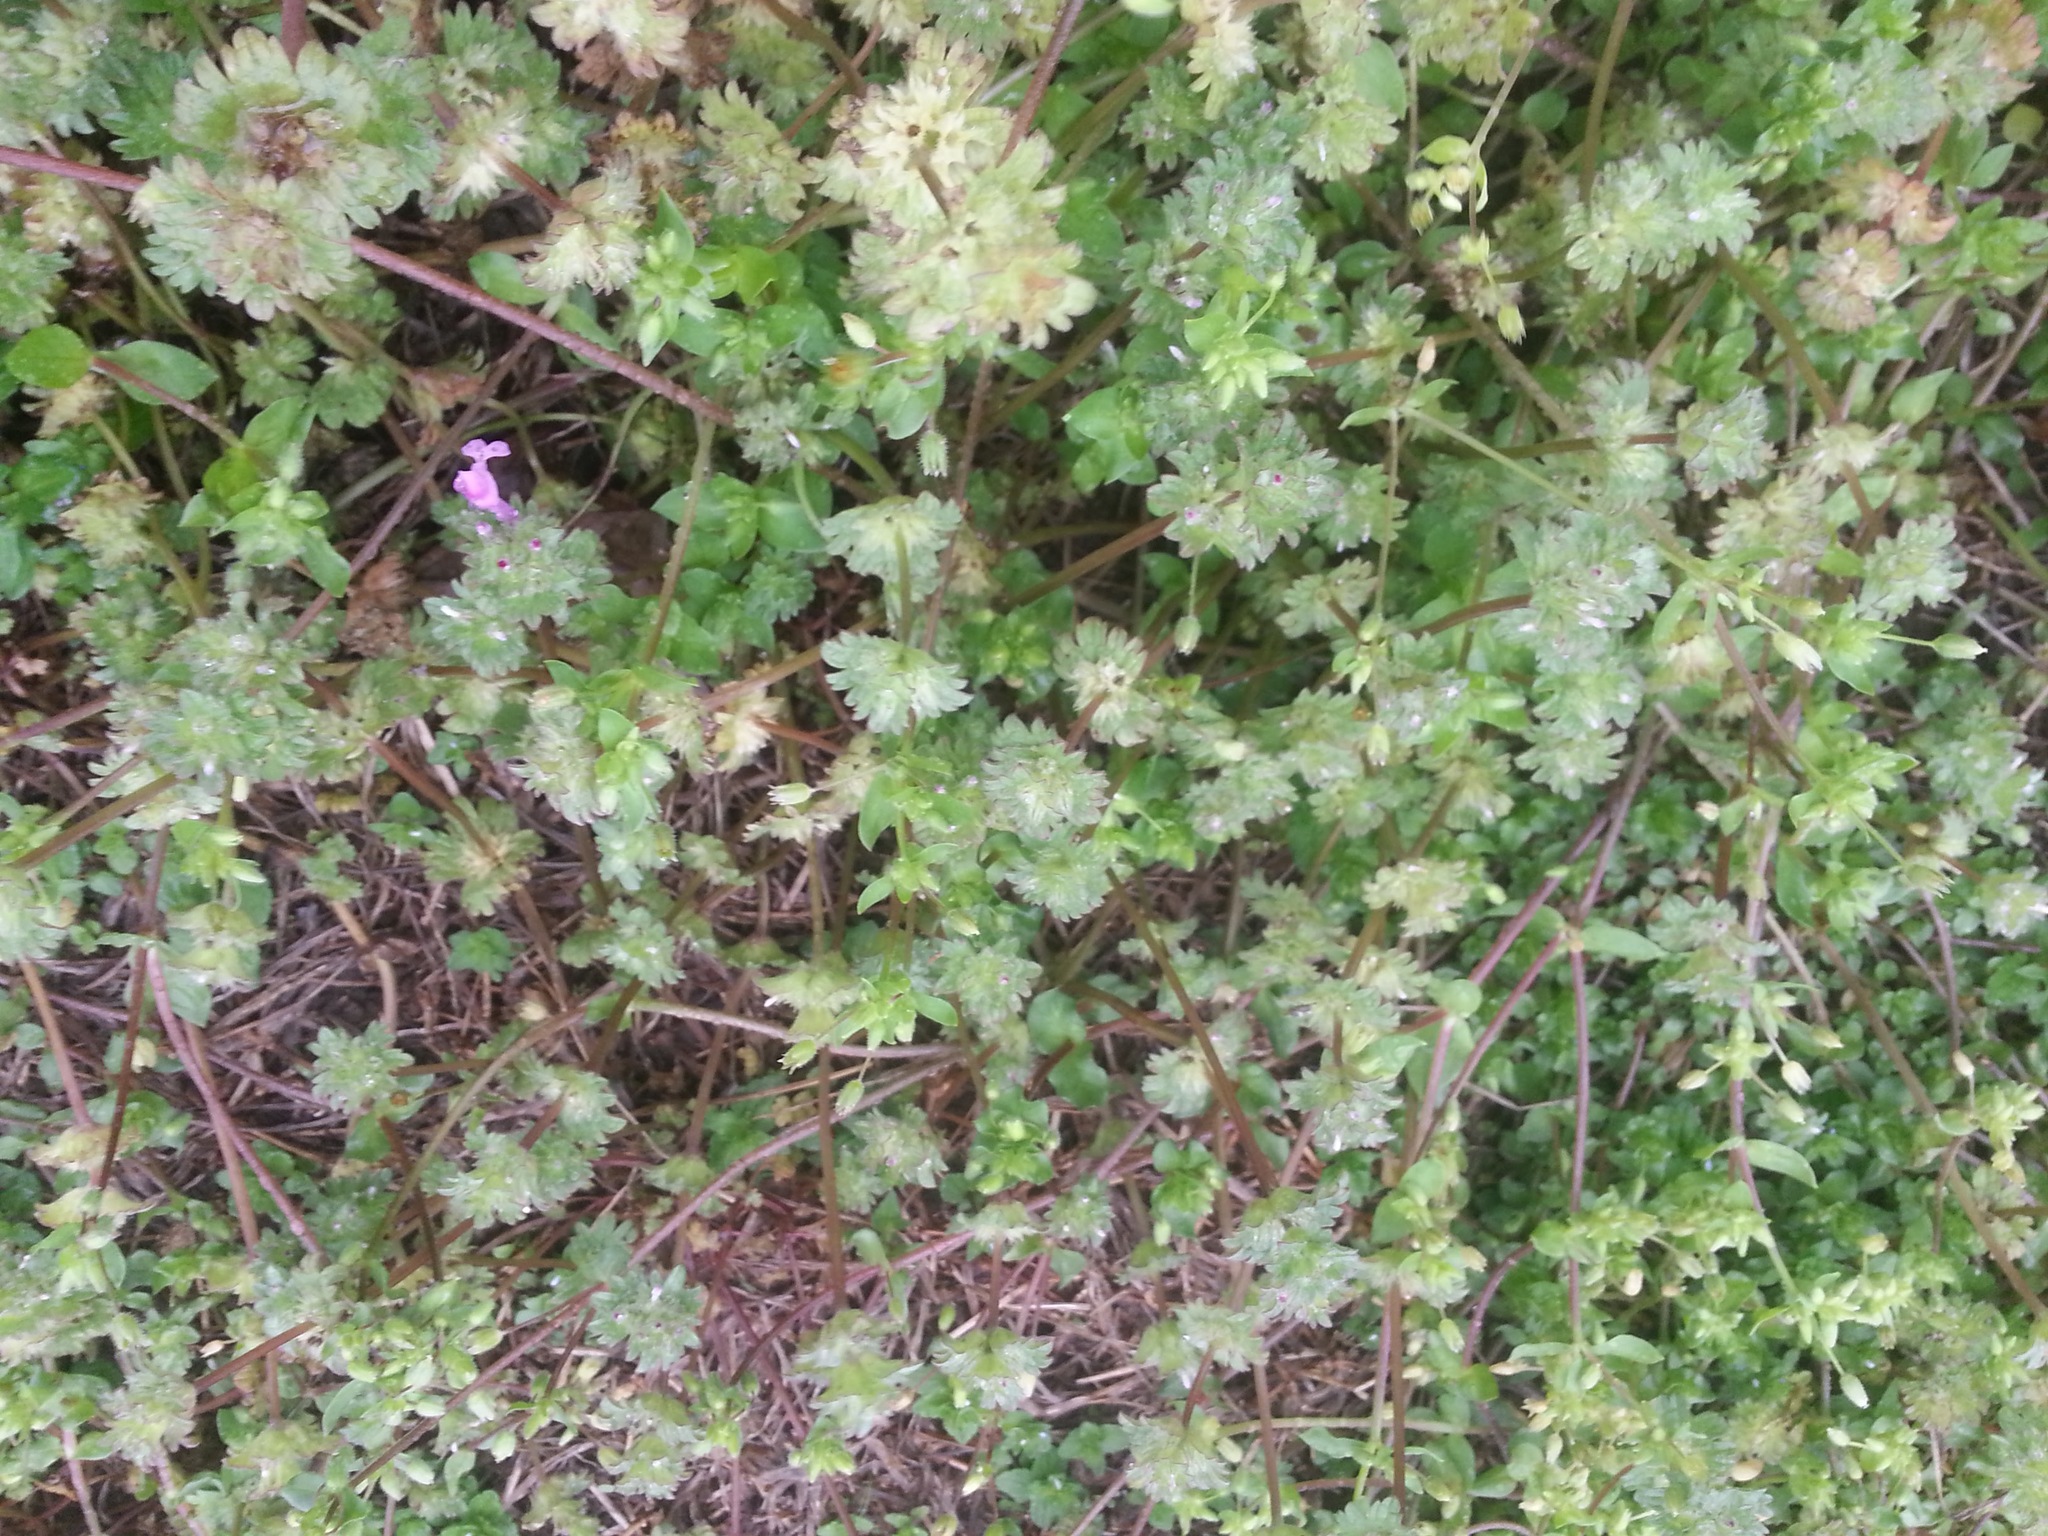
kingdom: Plantae
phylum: Tracheophyta
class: Magnoliopsida
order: Lamiales
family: Lamiaceae
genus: Lamium
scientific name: Lamium amplexicaule
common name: Henbit dead-nettle
